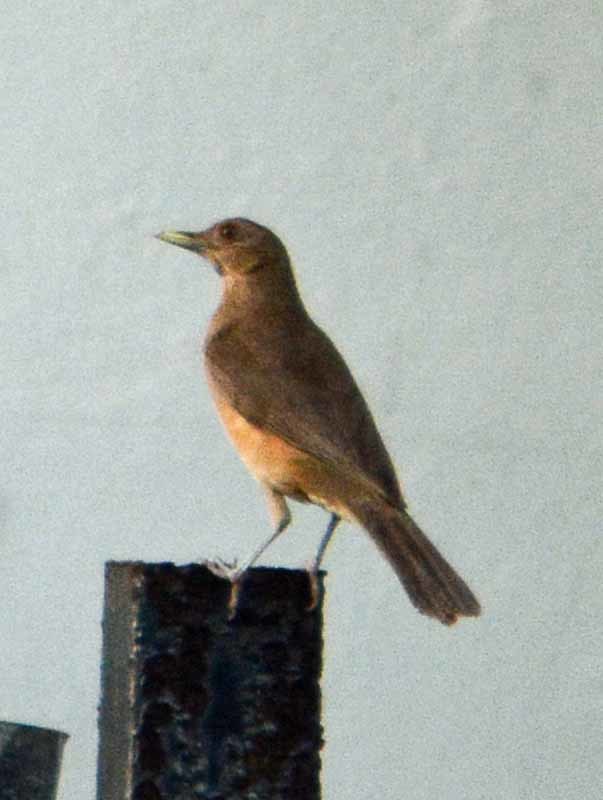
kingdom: Animalia
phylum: Chordata
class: Aves
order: Passeriformes
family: Turdidae
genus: Turdus
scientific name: Turdus grayi
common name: Clay-colored thrush
